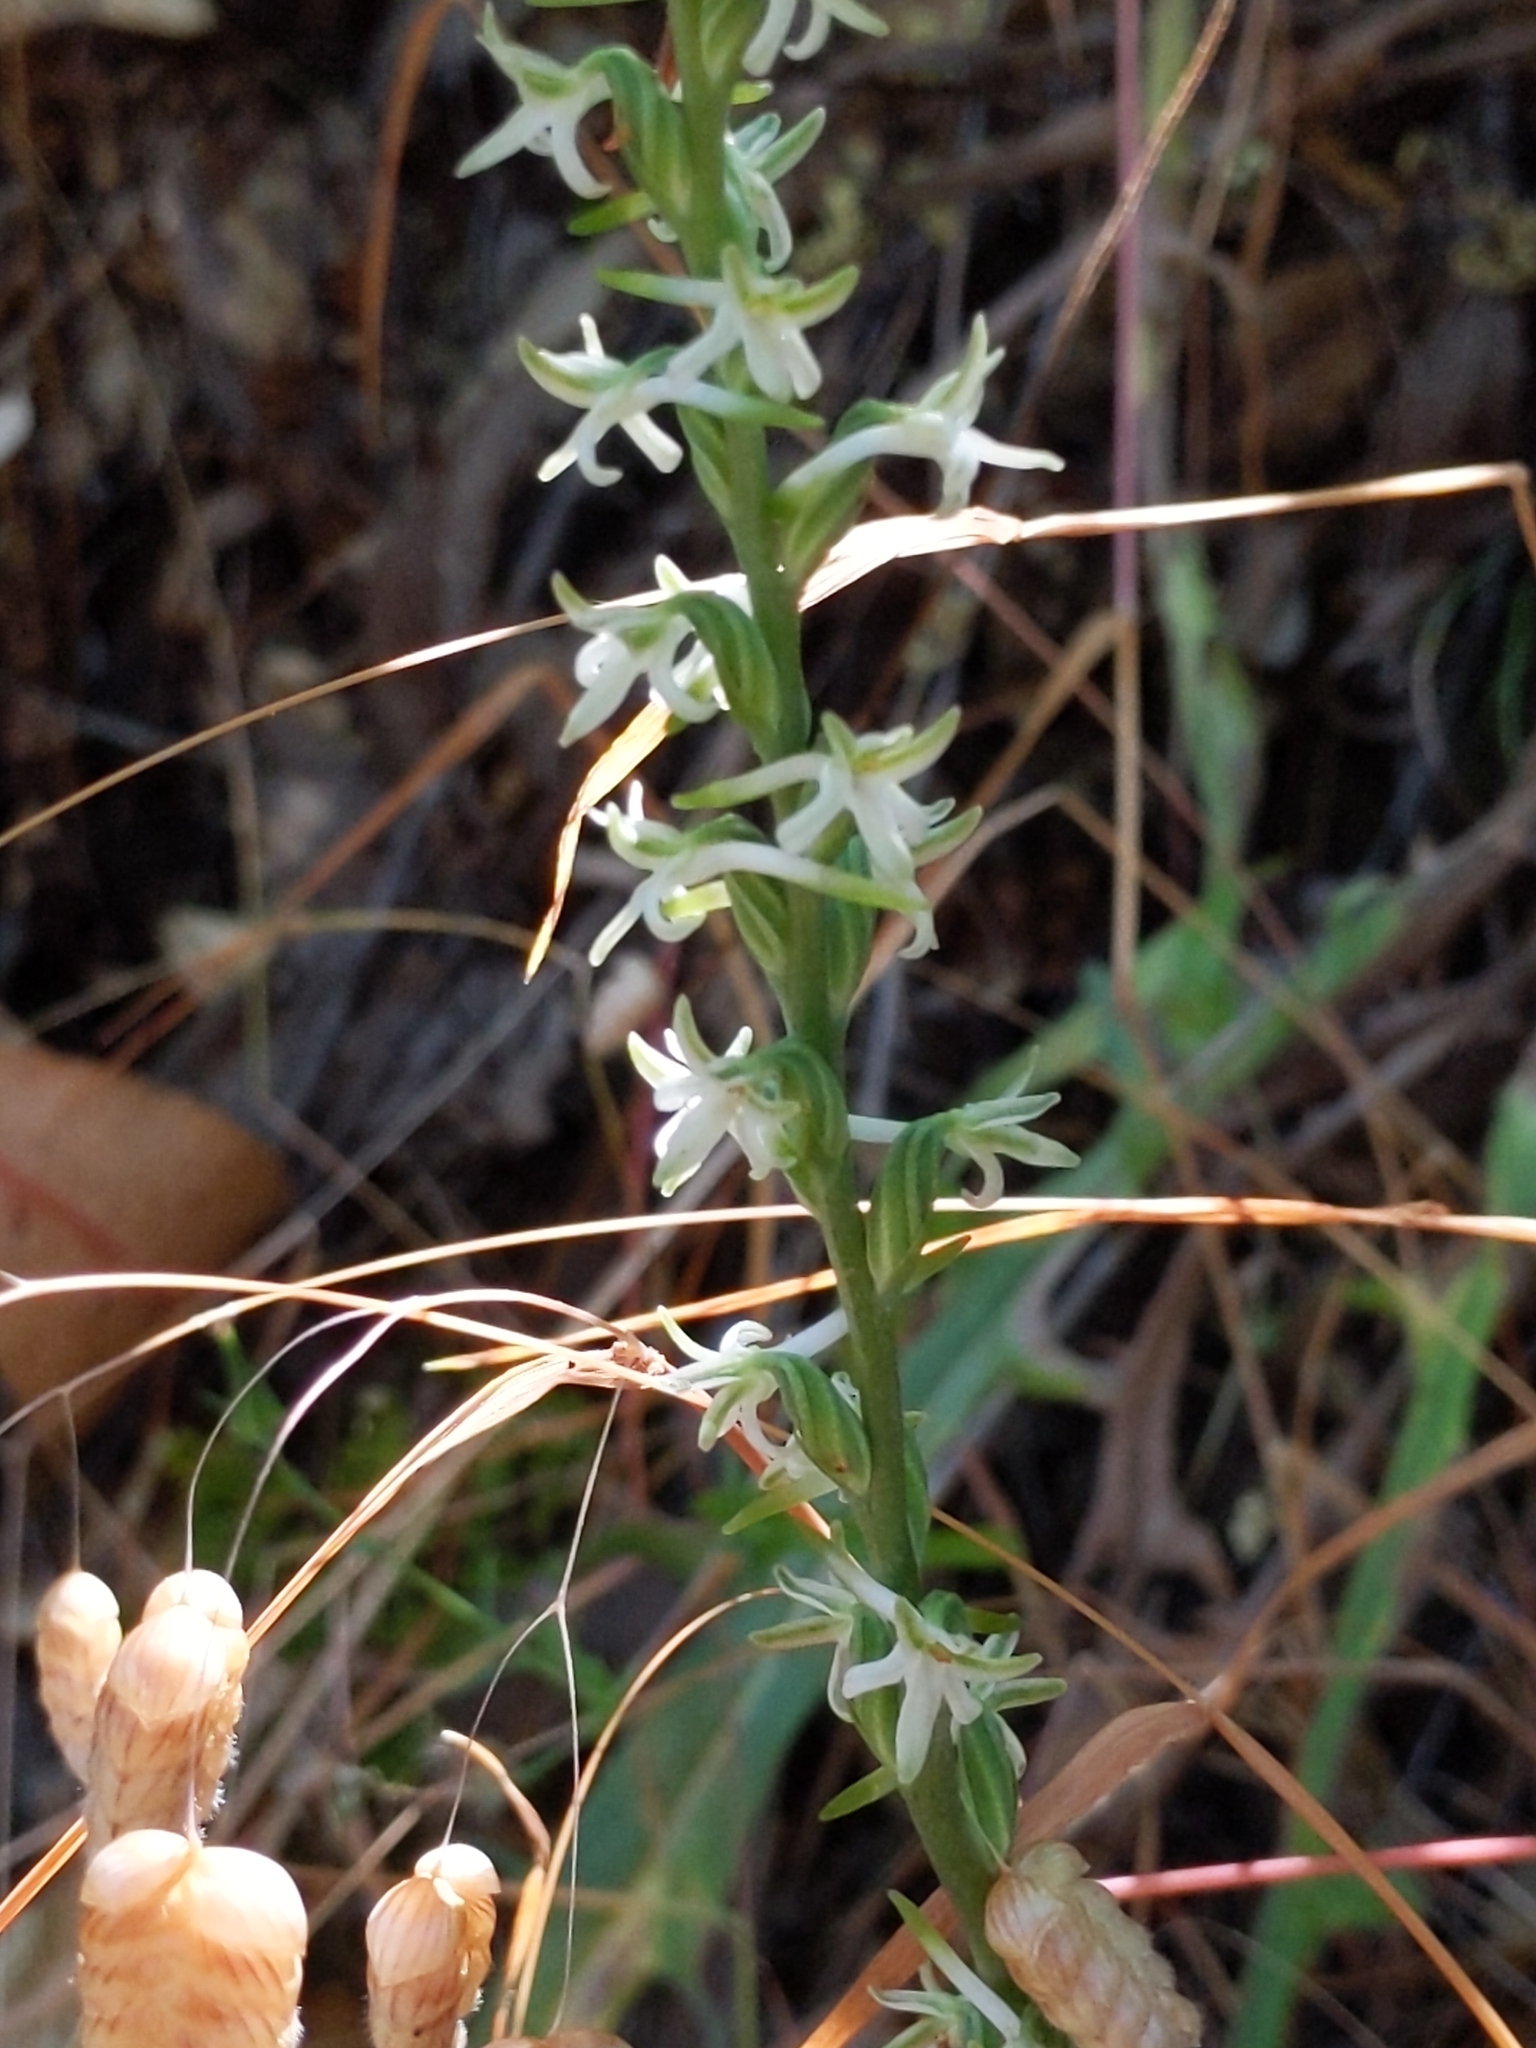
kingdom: Plantae
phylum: Tracheophyta
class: Liliopsida
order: Asparagales
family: Orchidaceae
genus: Platanthera
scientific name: Platanthera transversa
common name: Royal rein orchid
